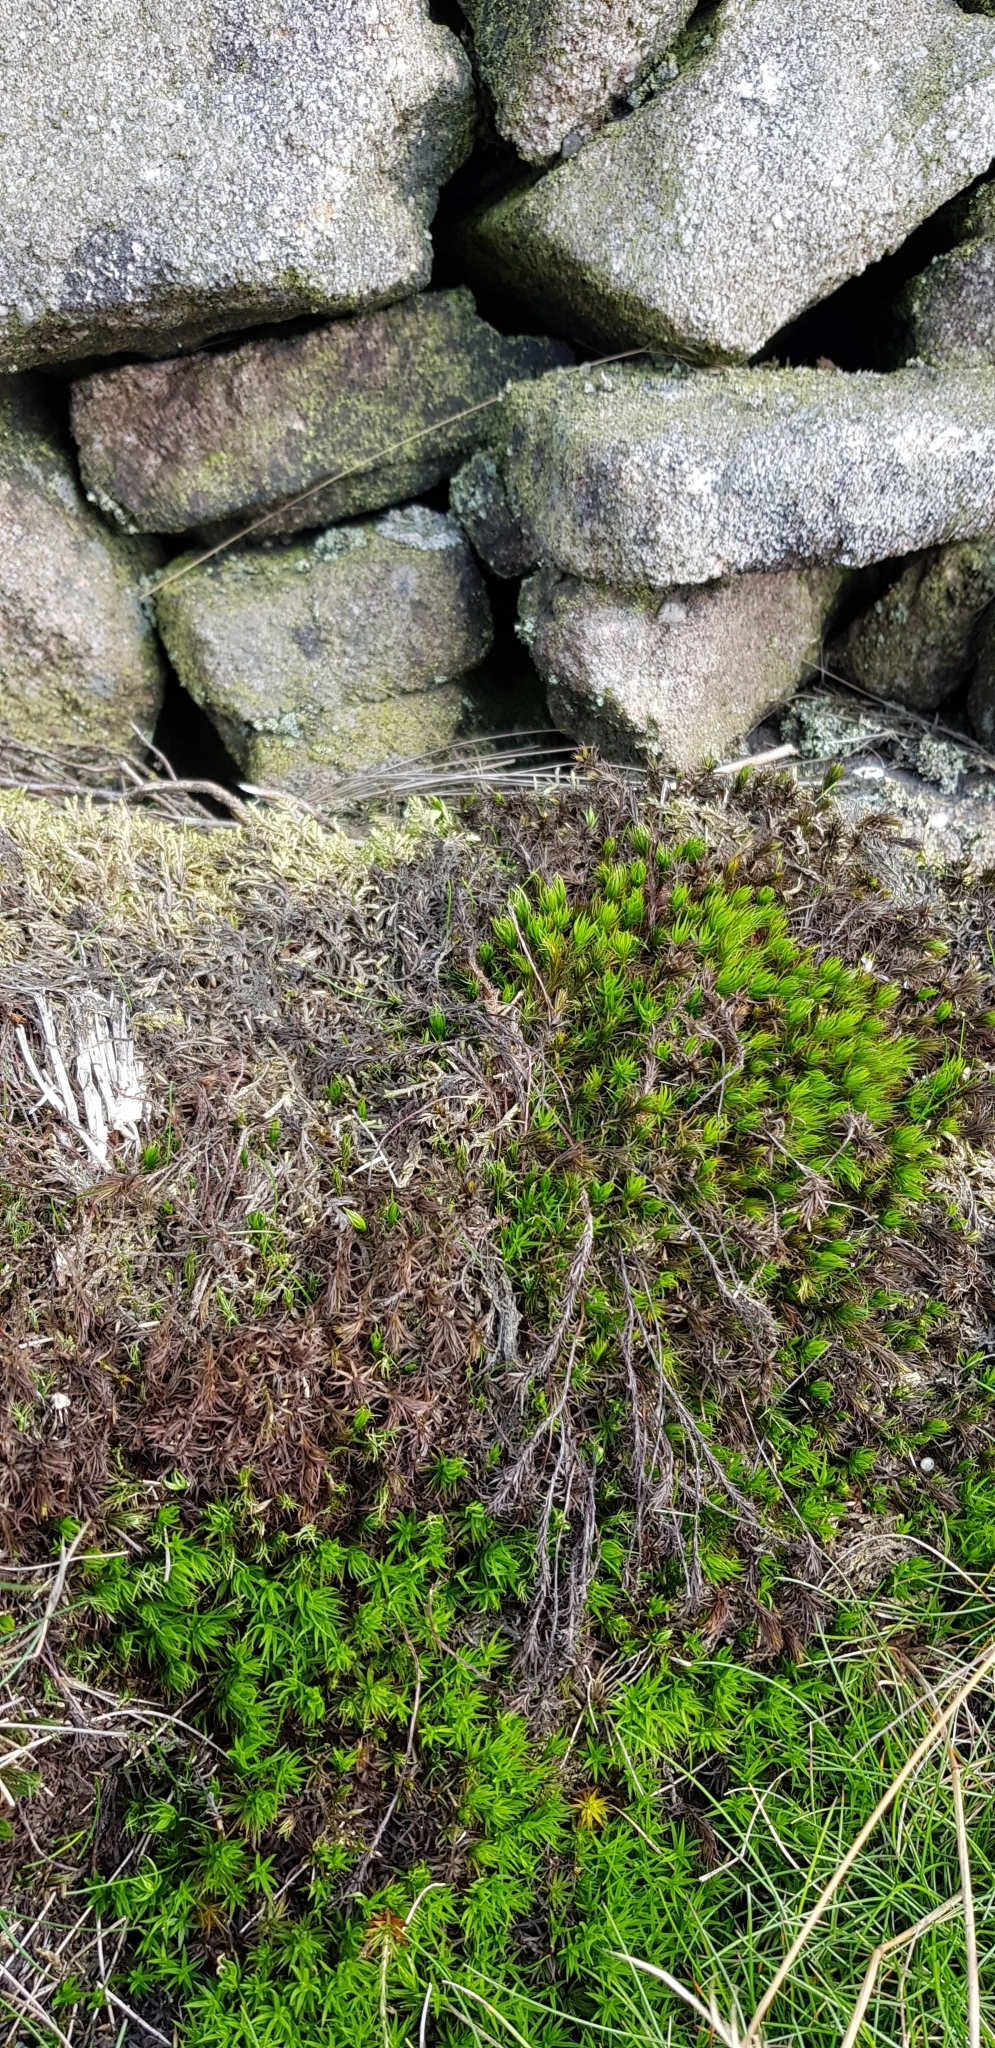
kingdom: Plantae
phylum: Bryophyta
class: Polytrichopsida
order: Polytrichales
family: Polytrichaceae
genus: Polytrichum
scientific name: Polytrichum juniperinum
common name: Juniper haircap moss
